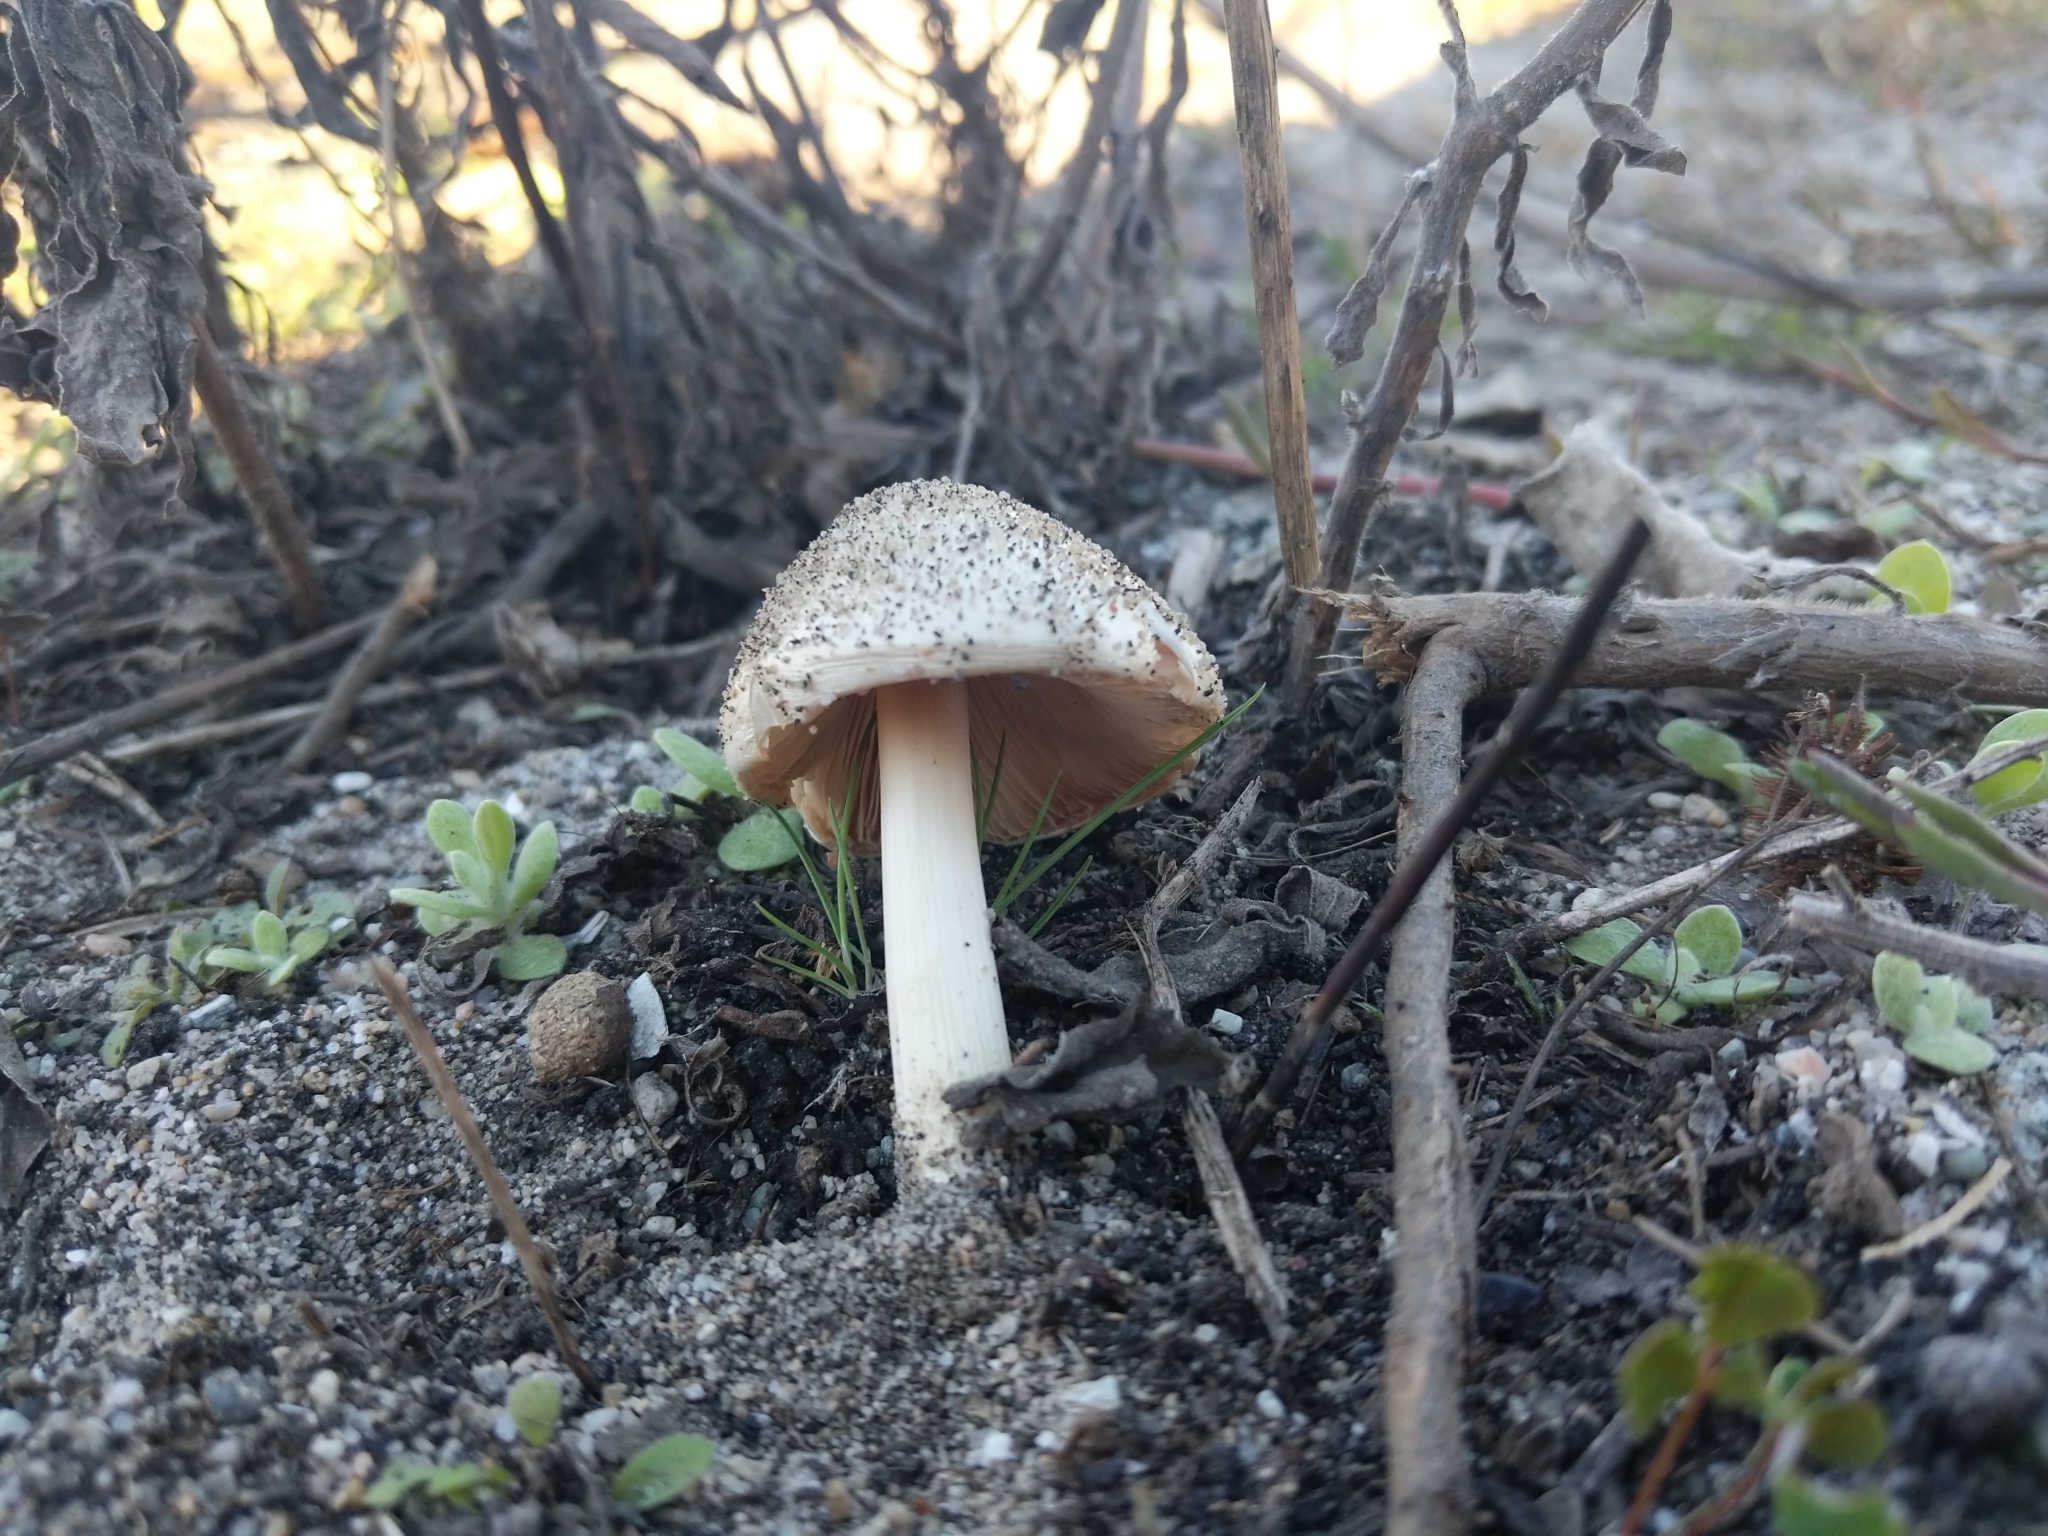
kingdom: Fungi
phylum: Basidiomycota
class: Agaricomycetes
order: Agaricales
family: Pluteaceae
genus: Volvopluteus
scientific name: Volvopluteus gloiocephalus
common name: Stubble rosegill
